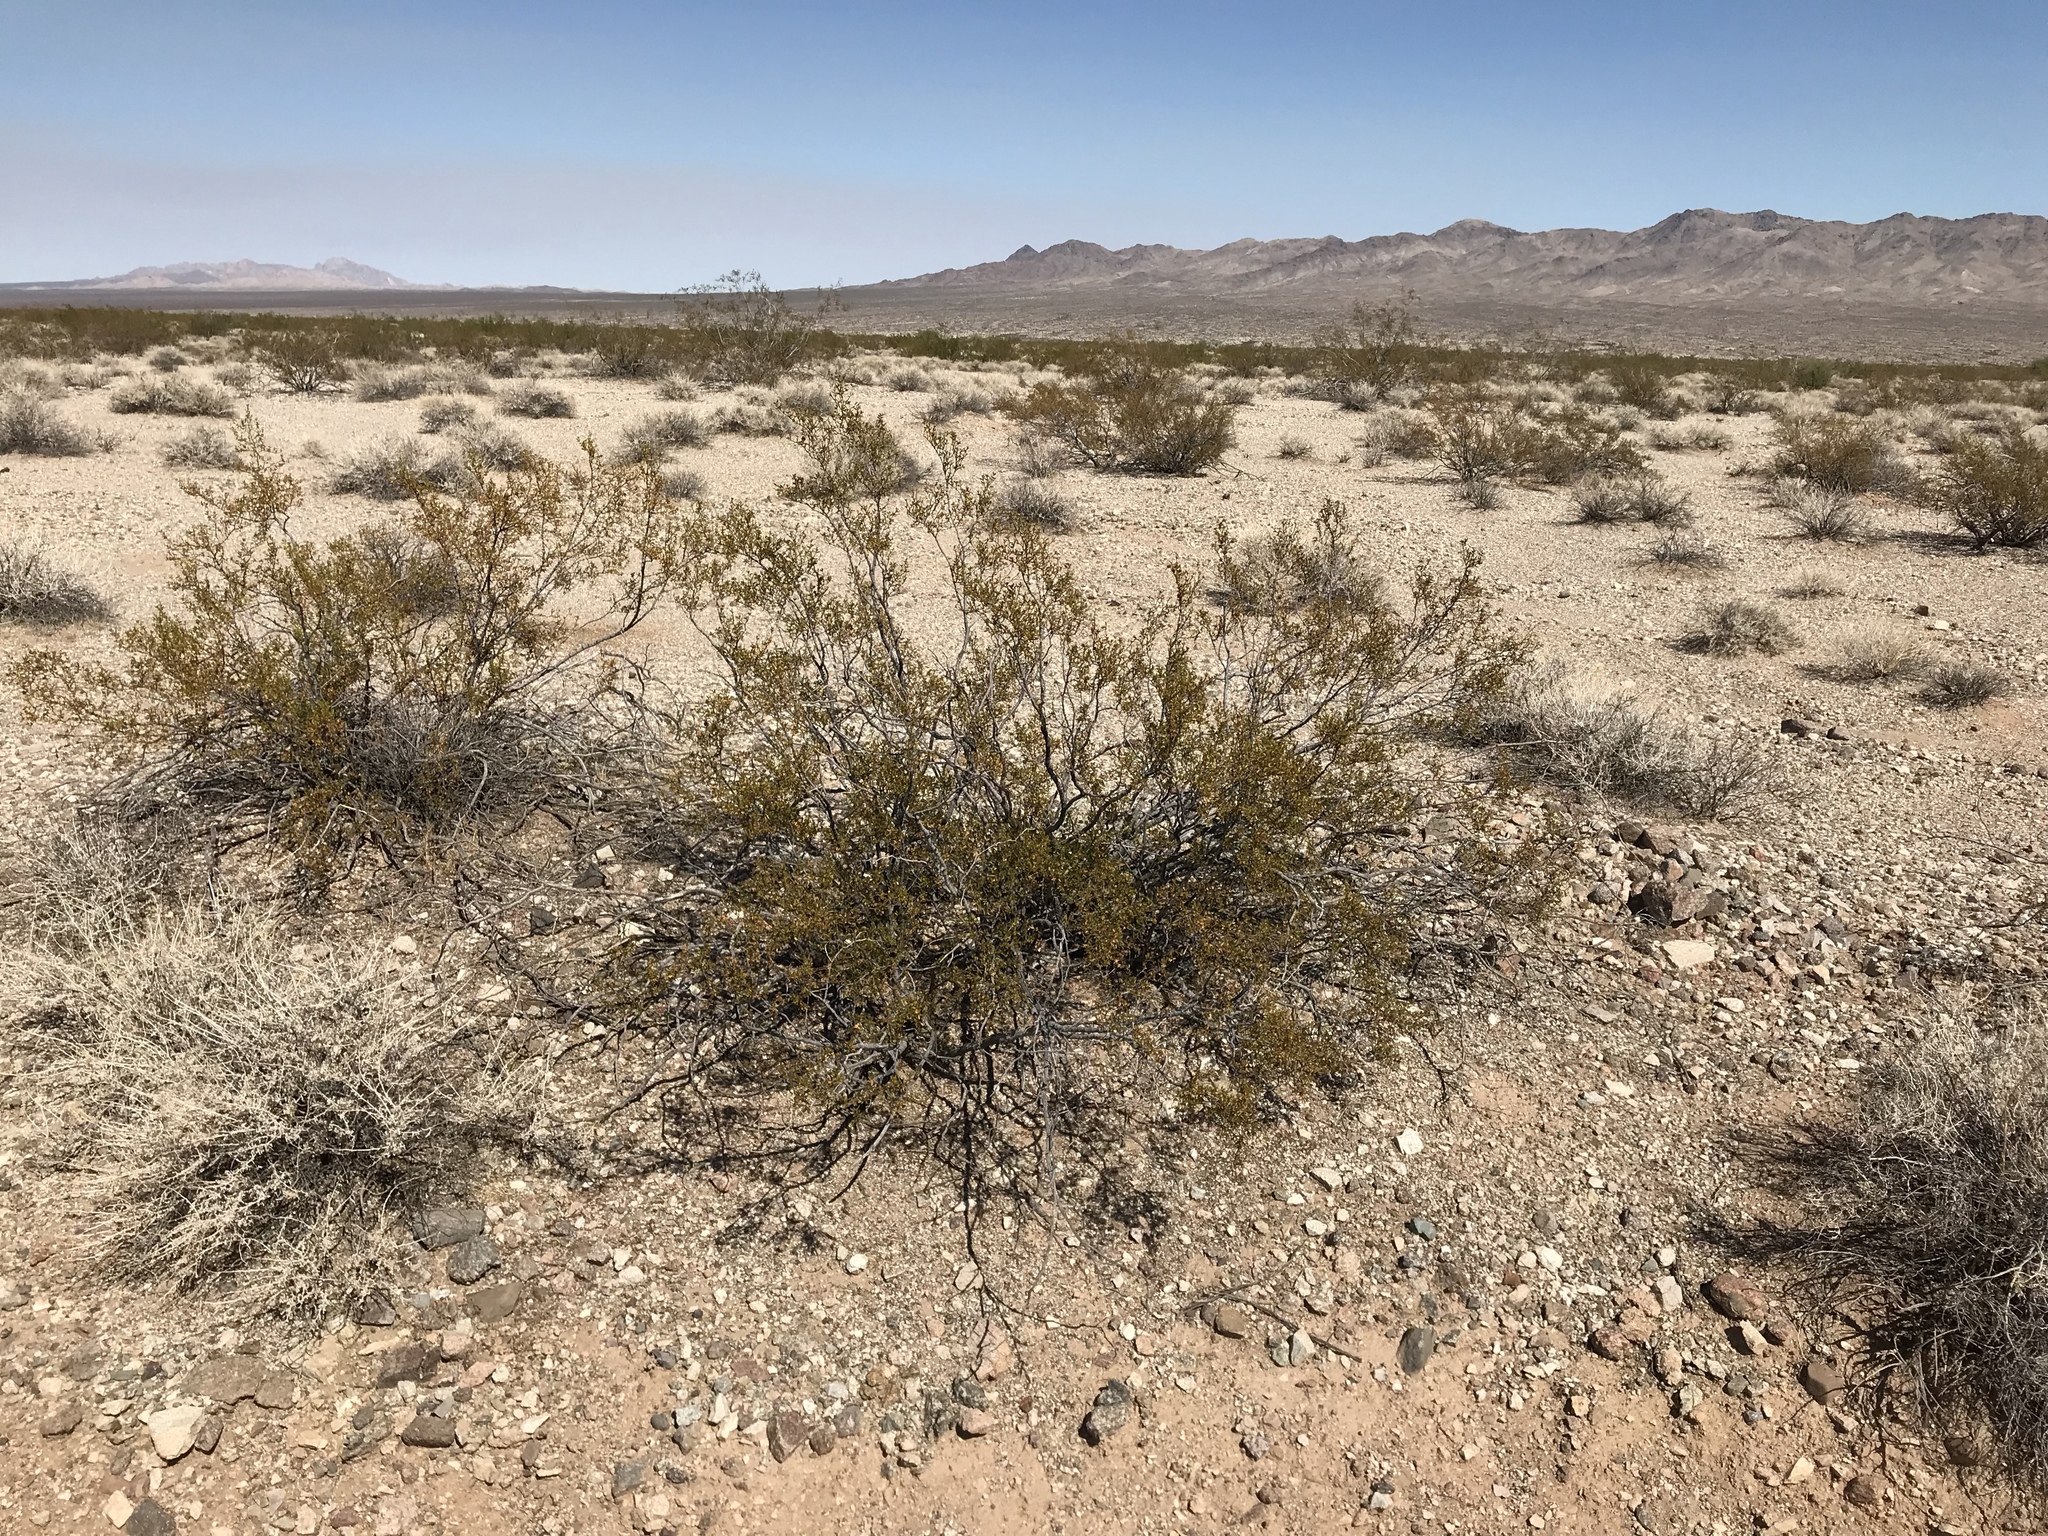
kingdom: Plantae
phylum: Tracheophyta
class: Magnoliopsida
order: Zygophyllales
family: Zygophyllaceae
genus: Larrea
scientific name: Larrea tridentata
